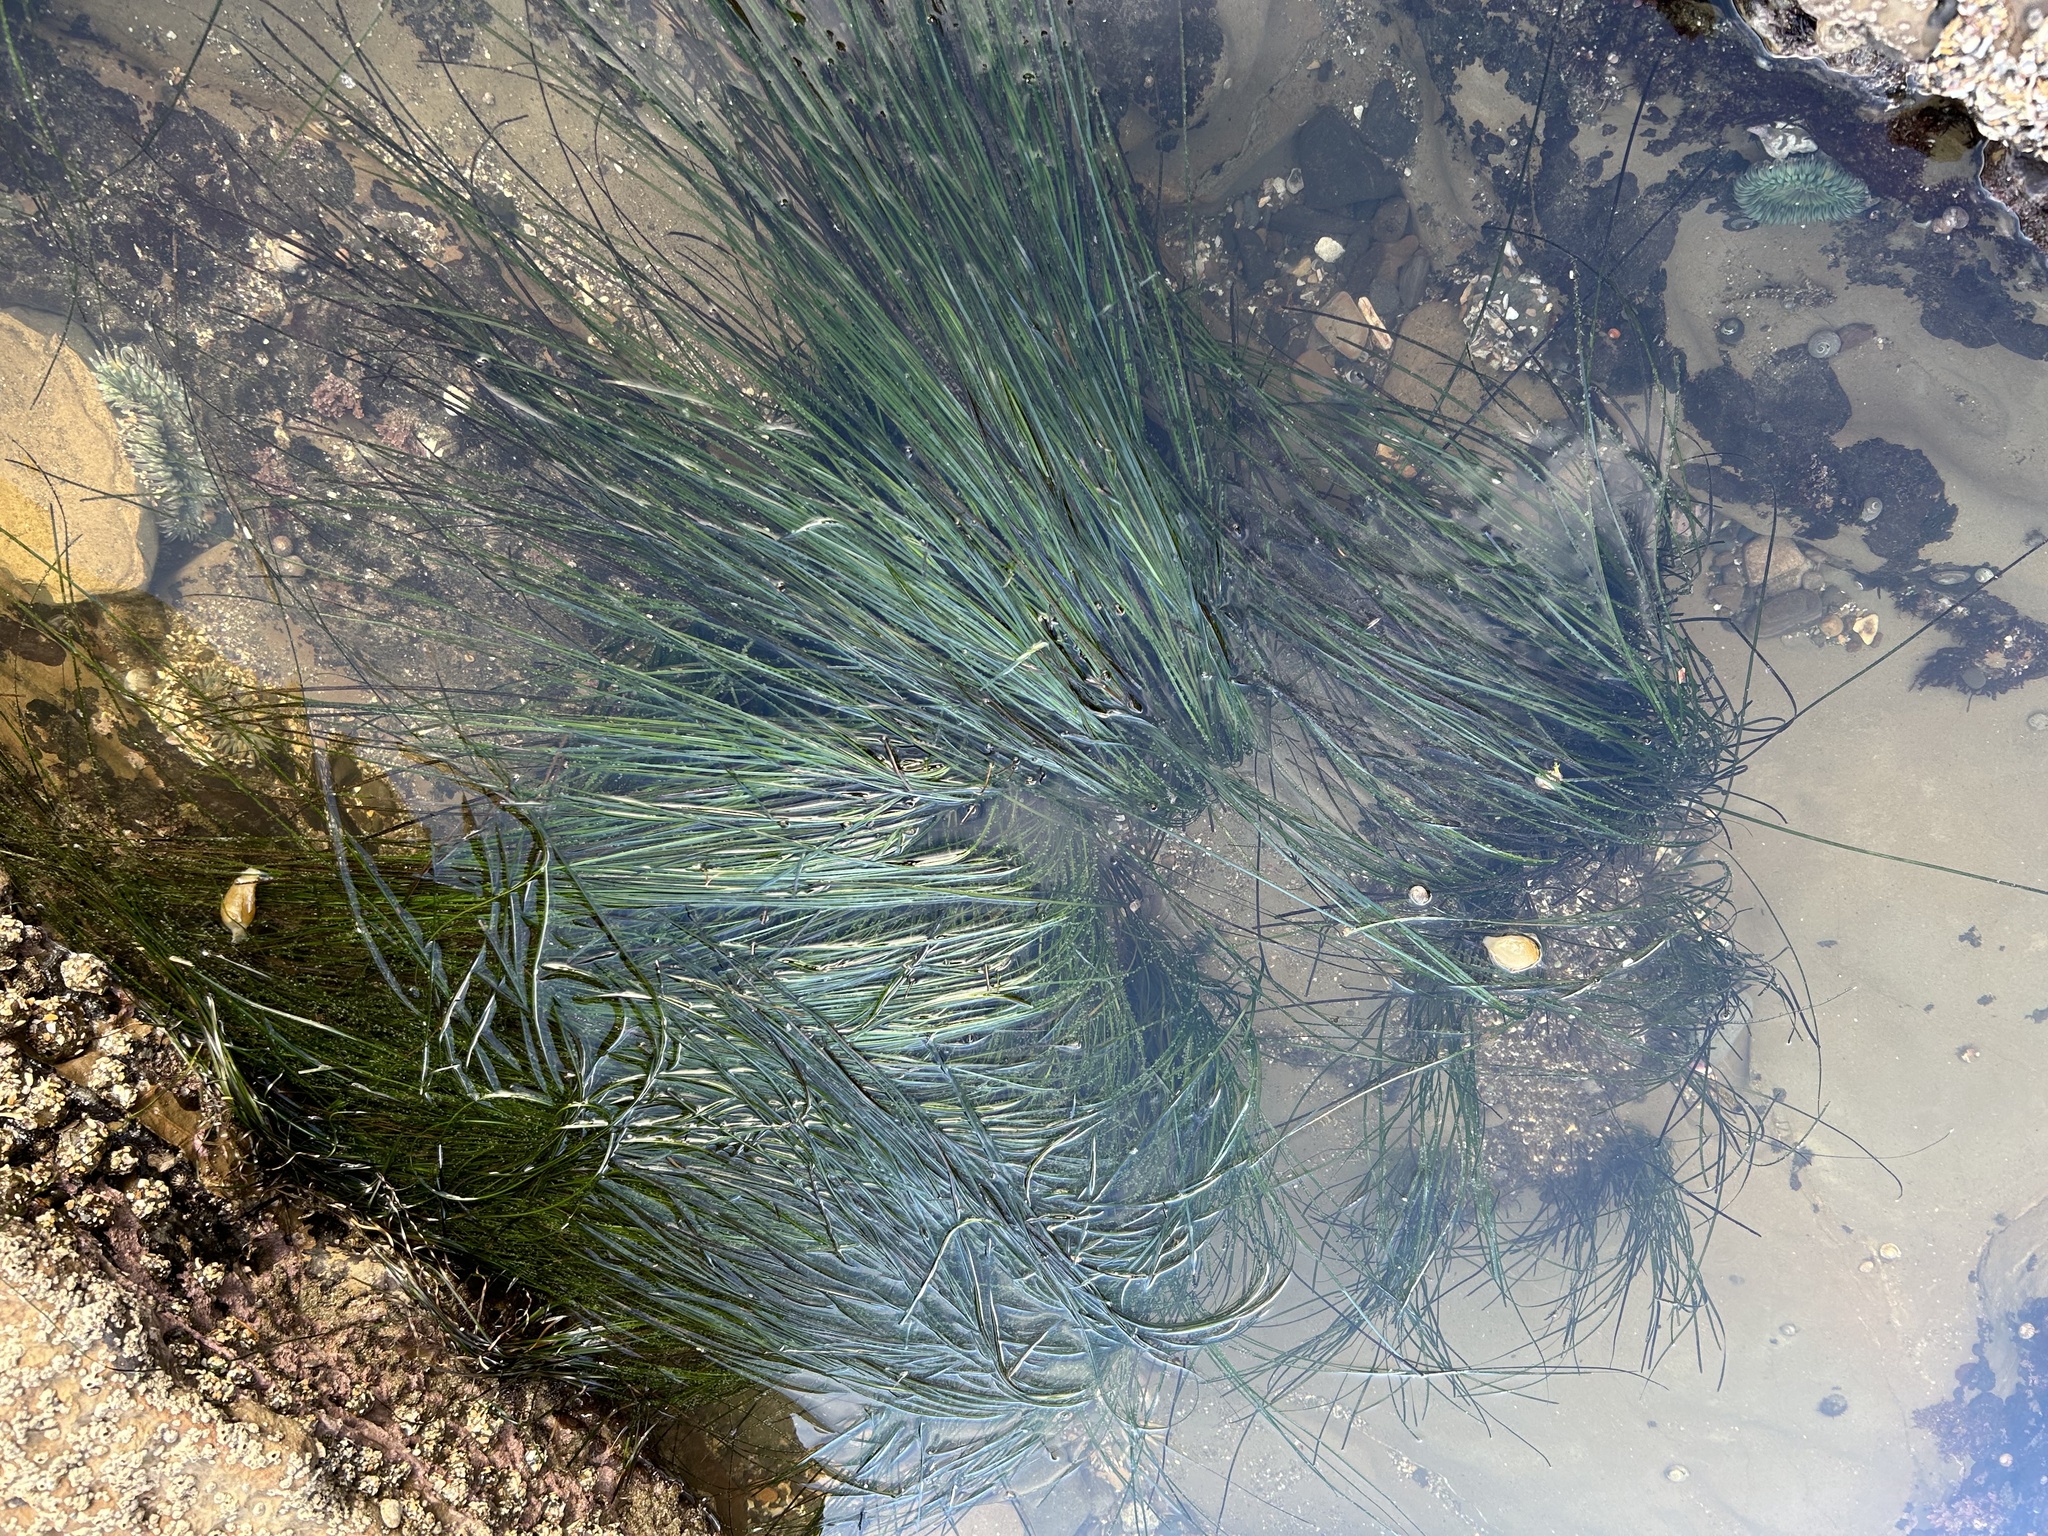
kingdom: Plantae
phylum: Tracheophyta
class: Liliopsida
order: Alismatales
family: Zosteraceae
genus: Phyllospadix
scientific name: Phyllospadix torreyi
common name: Surfgrass
